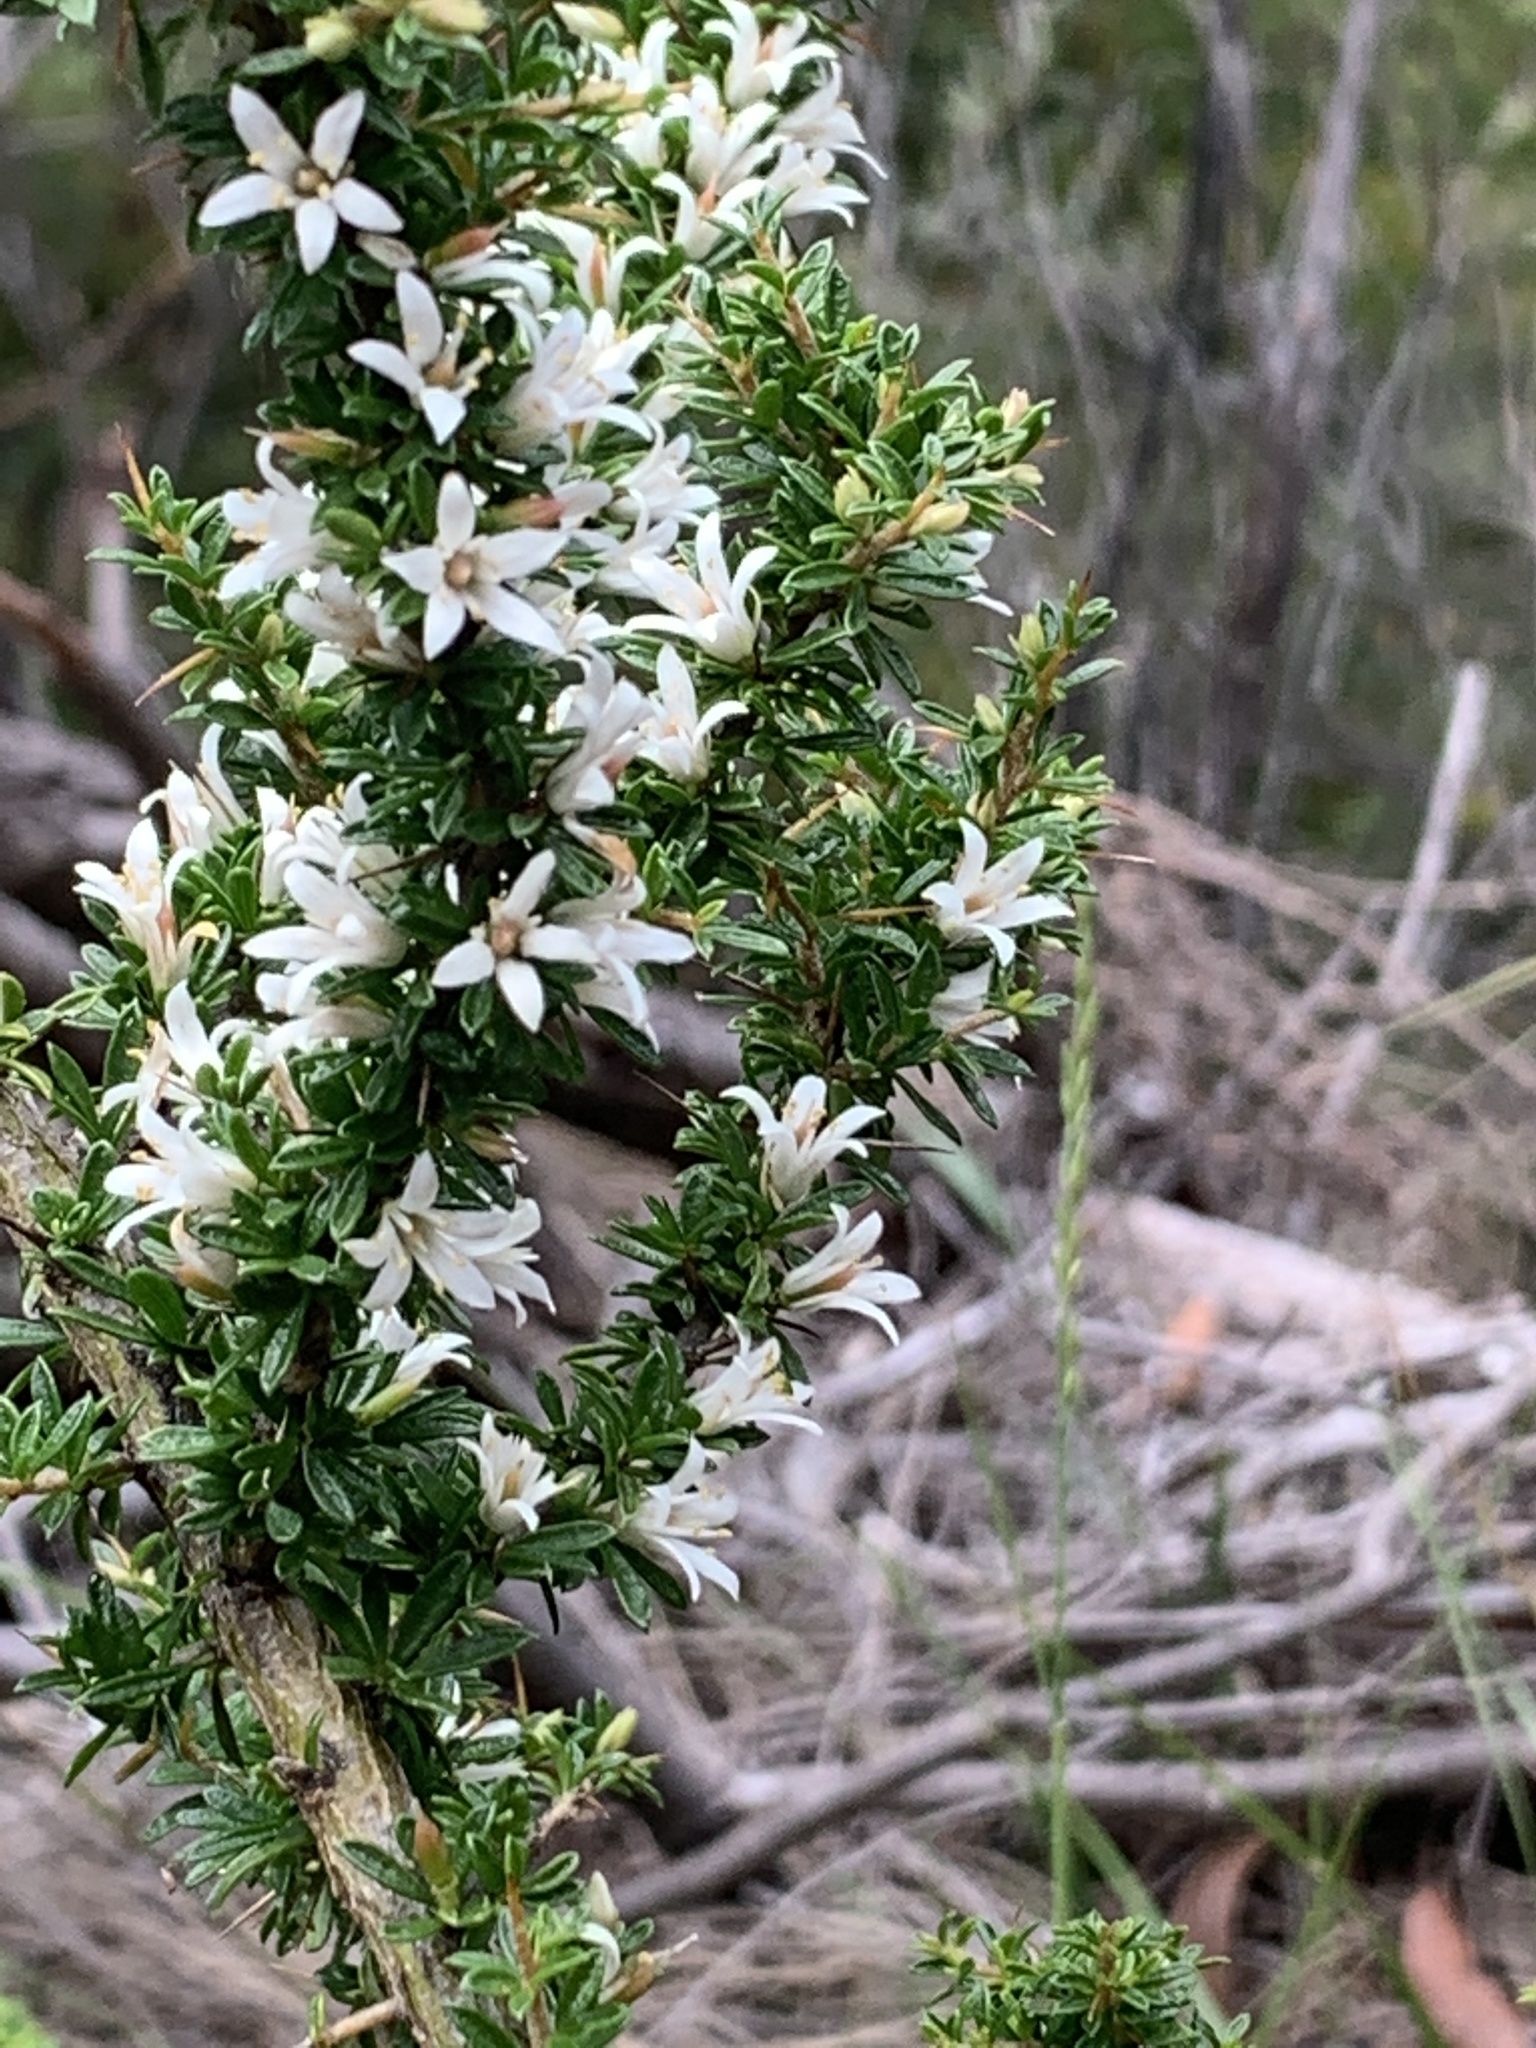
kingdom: Plantae
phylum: Tracheophyta
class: Magnoliopsida
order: Apiales
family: Pittosporaceae
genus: Bursaria
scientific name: Bursaria longisepala
